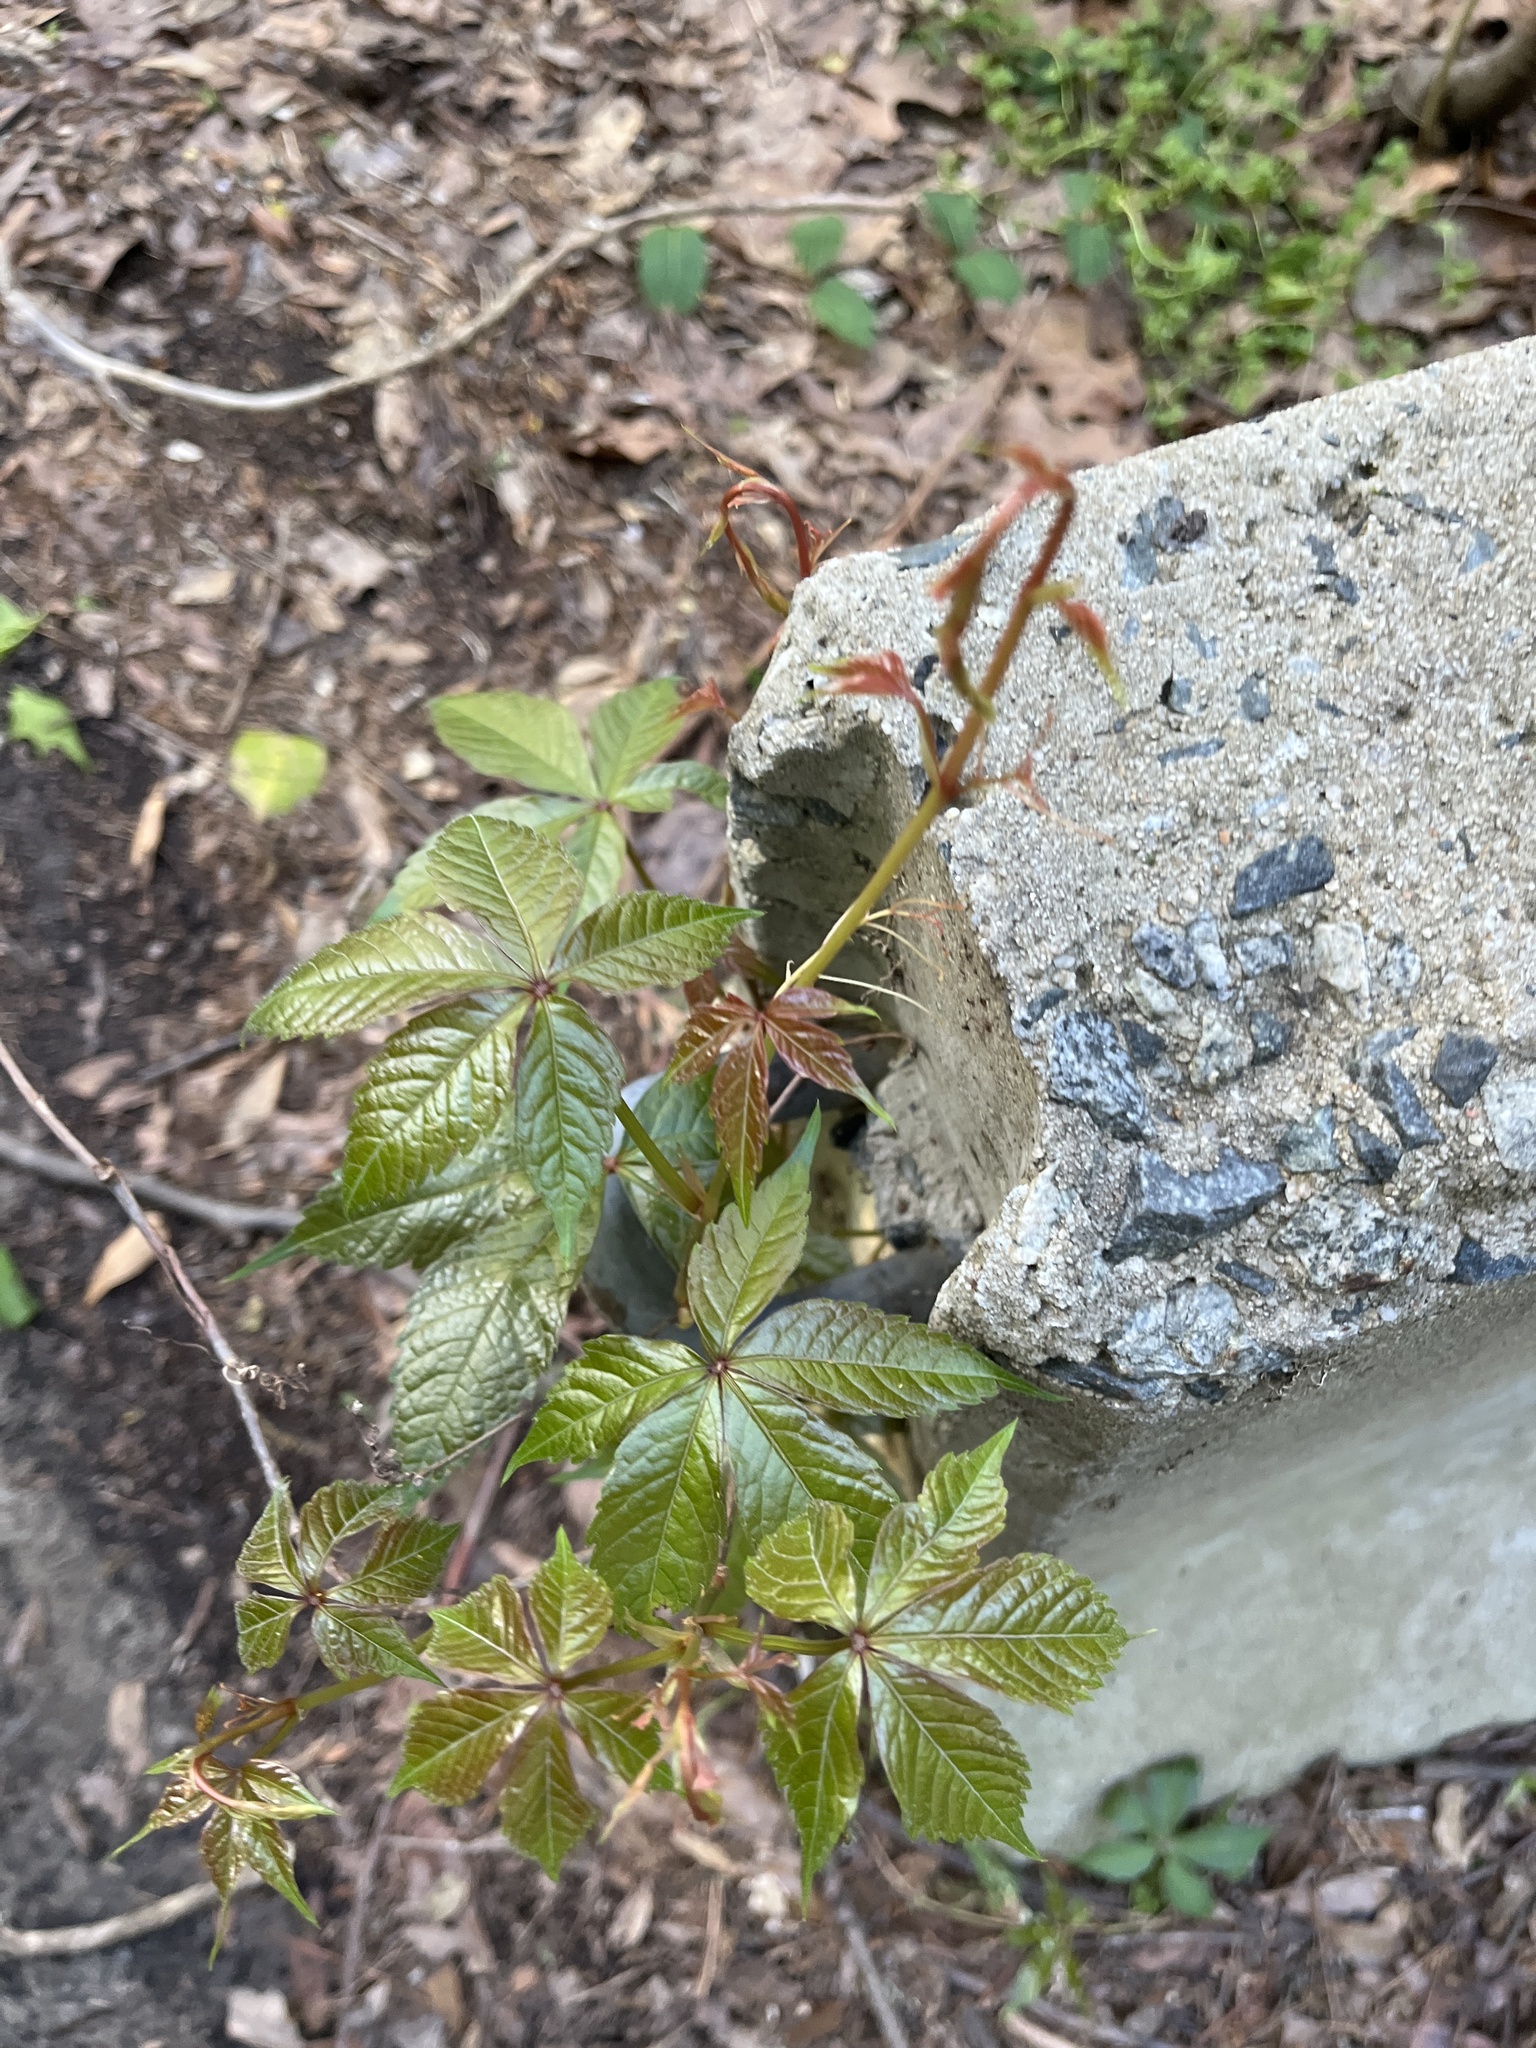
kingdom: Plantae
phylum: Tracheophyta
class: Magnoliopsida
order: Vitales
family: Vitaceae
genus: Parthenocissus
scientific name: Parthenocissus quinquefolia
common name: Virginia-creeper
